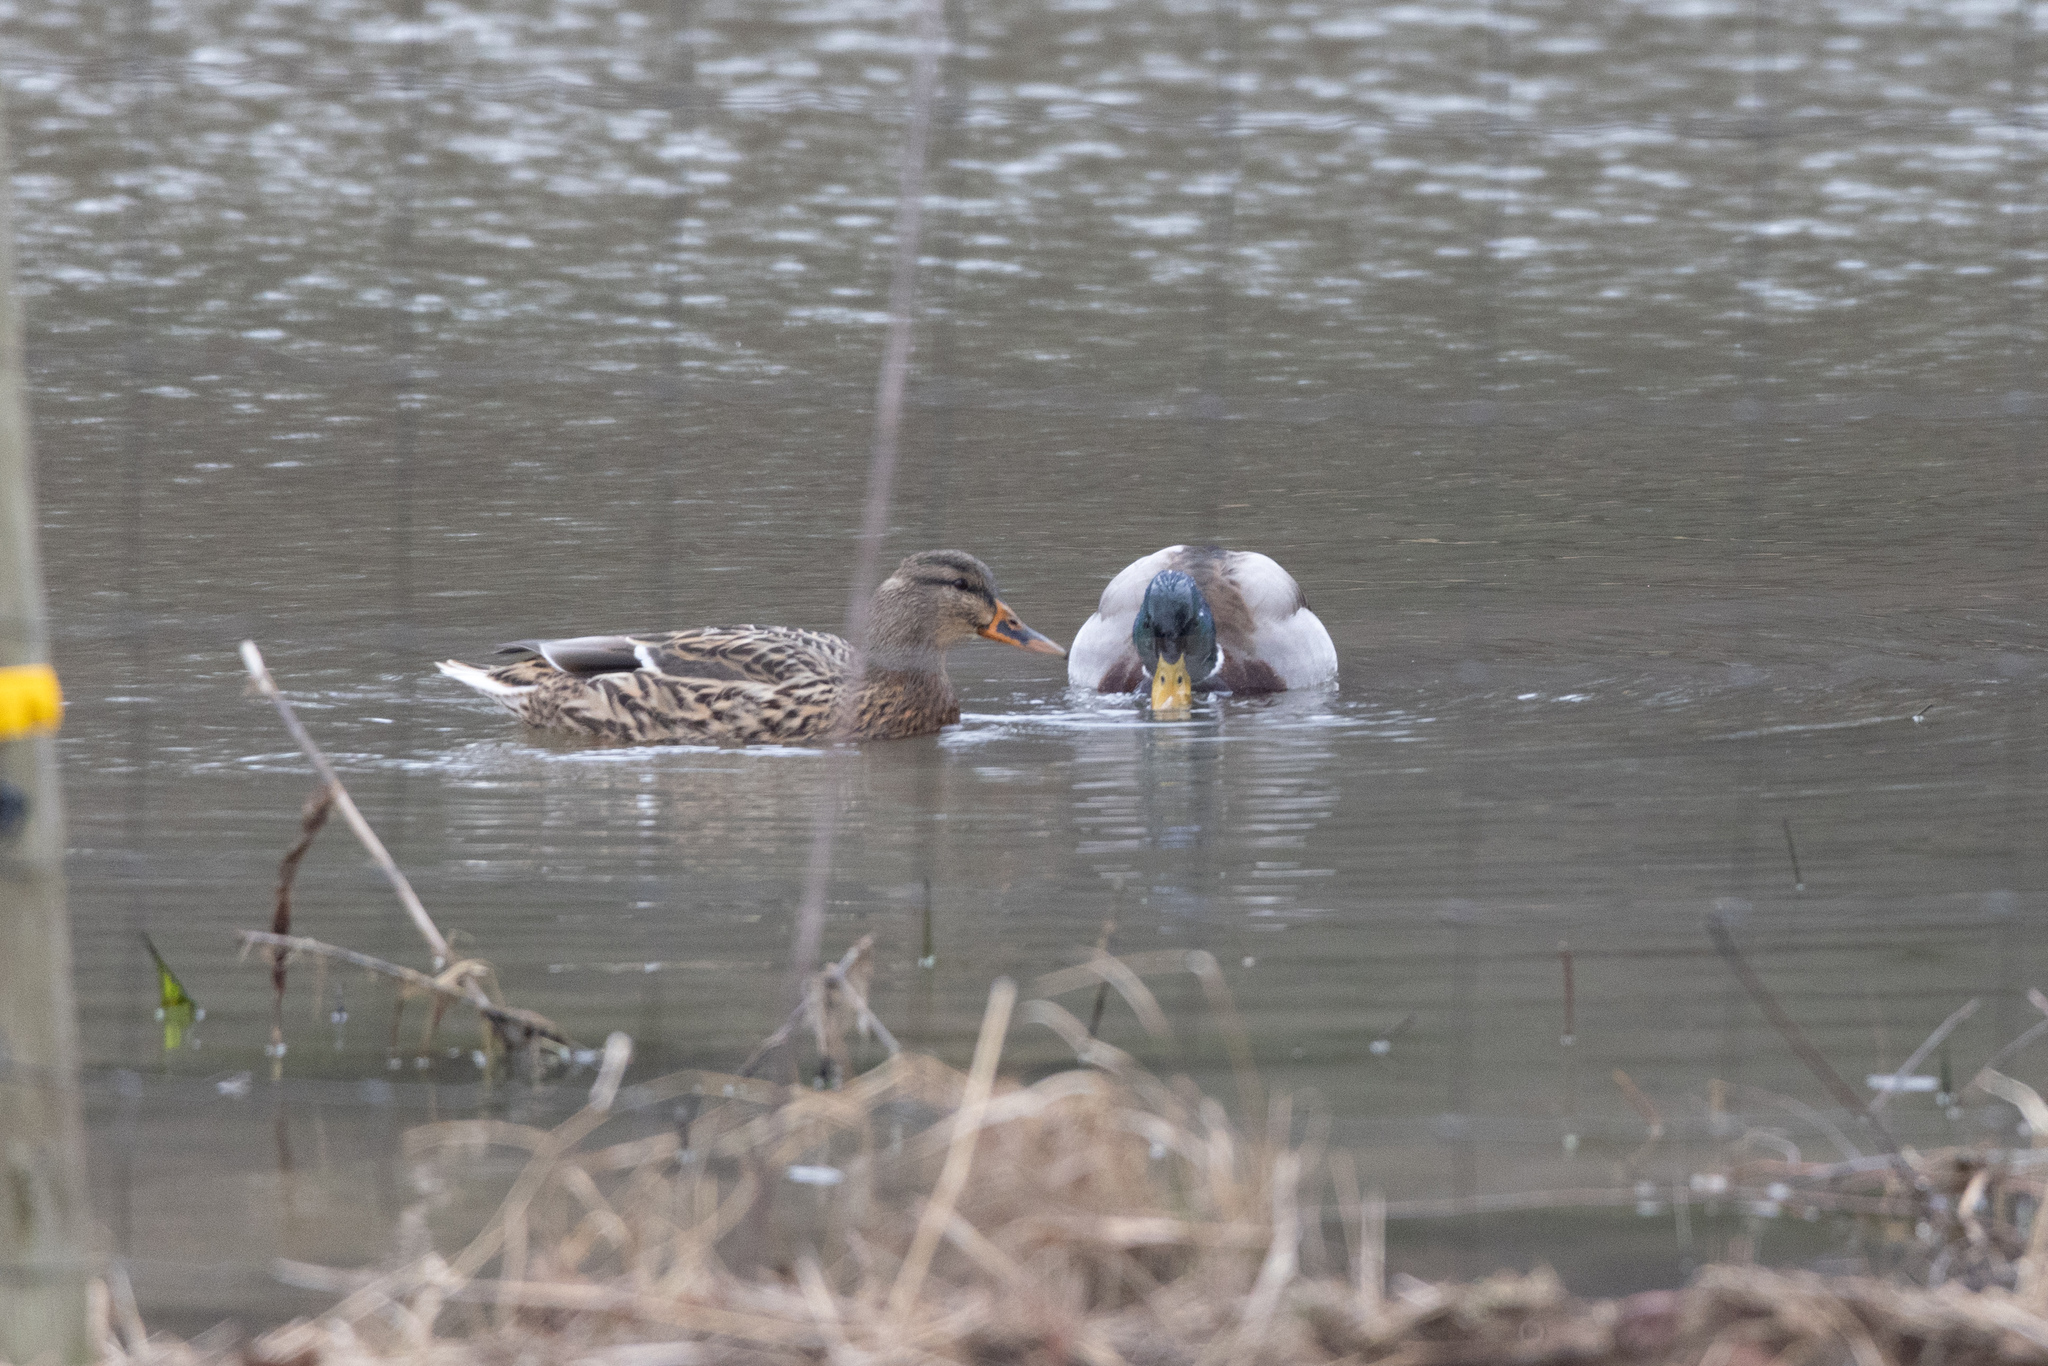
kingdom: Animalia
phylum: Chordata
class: Aves
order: Anseriformes
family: Anatidae
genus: Anas
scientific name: Anas platyrhynchos
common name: Mallard
